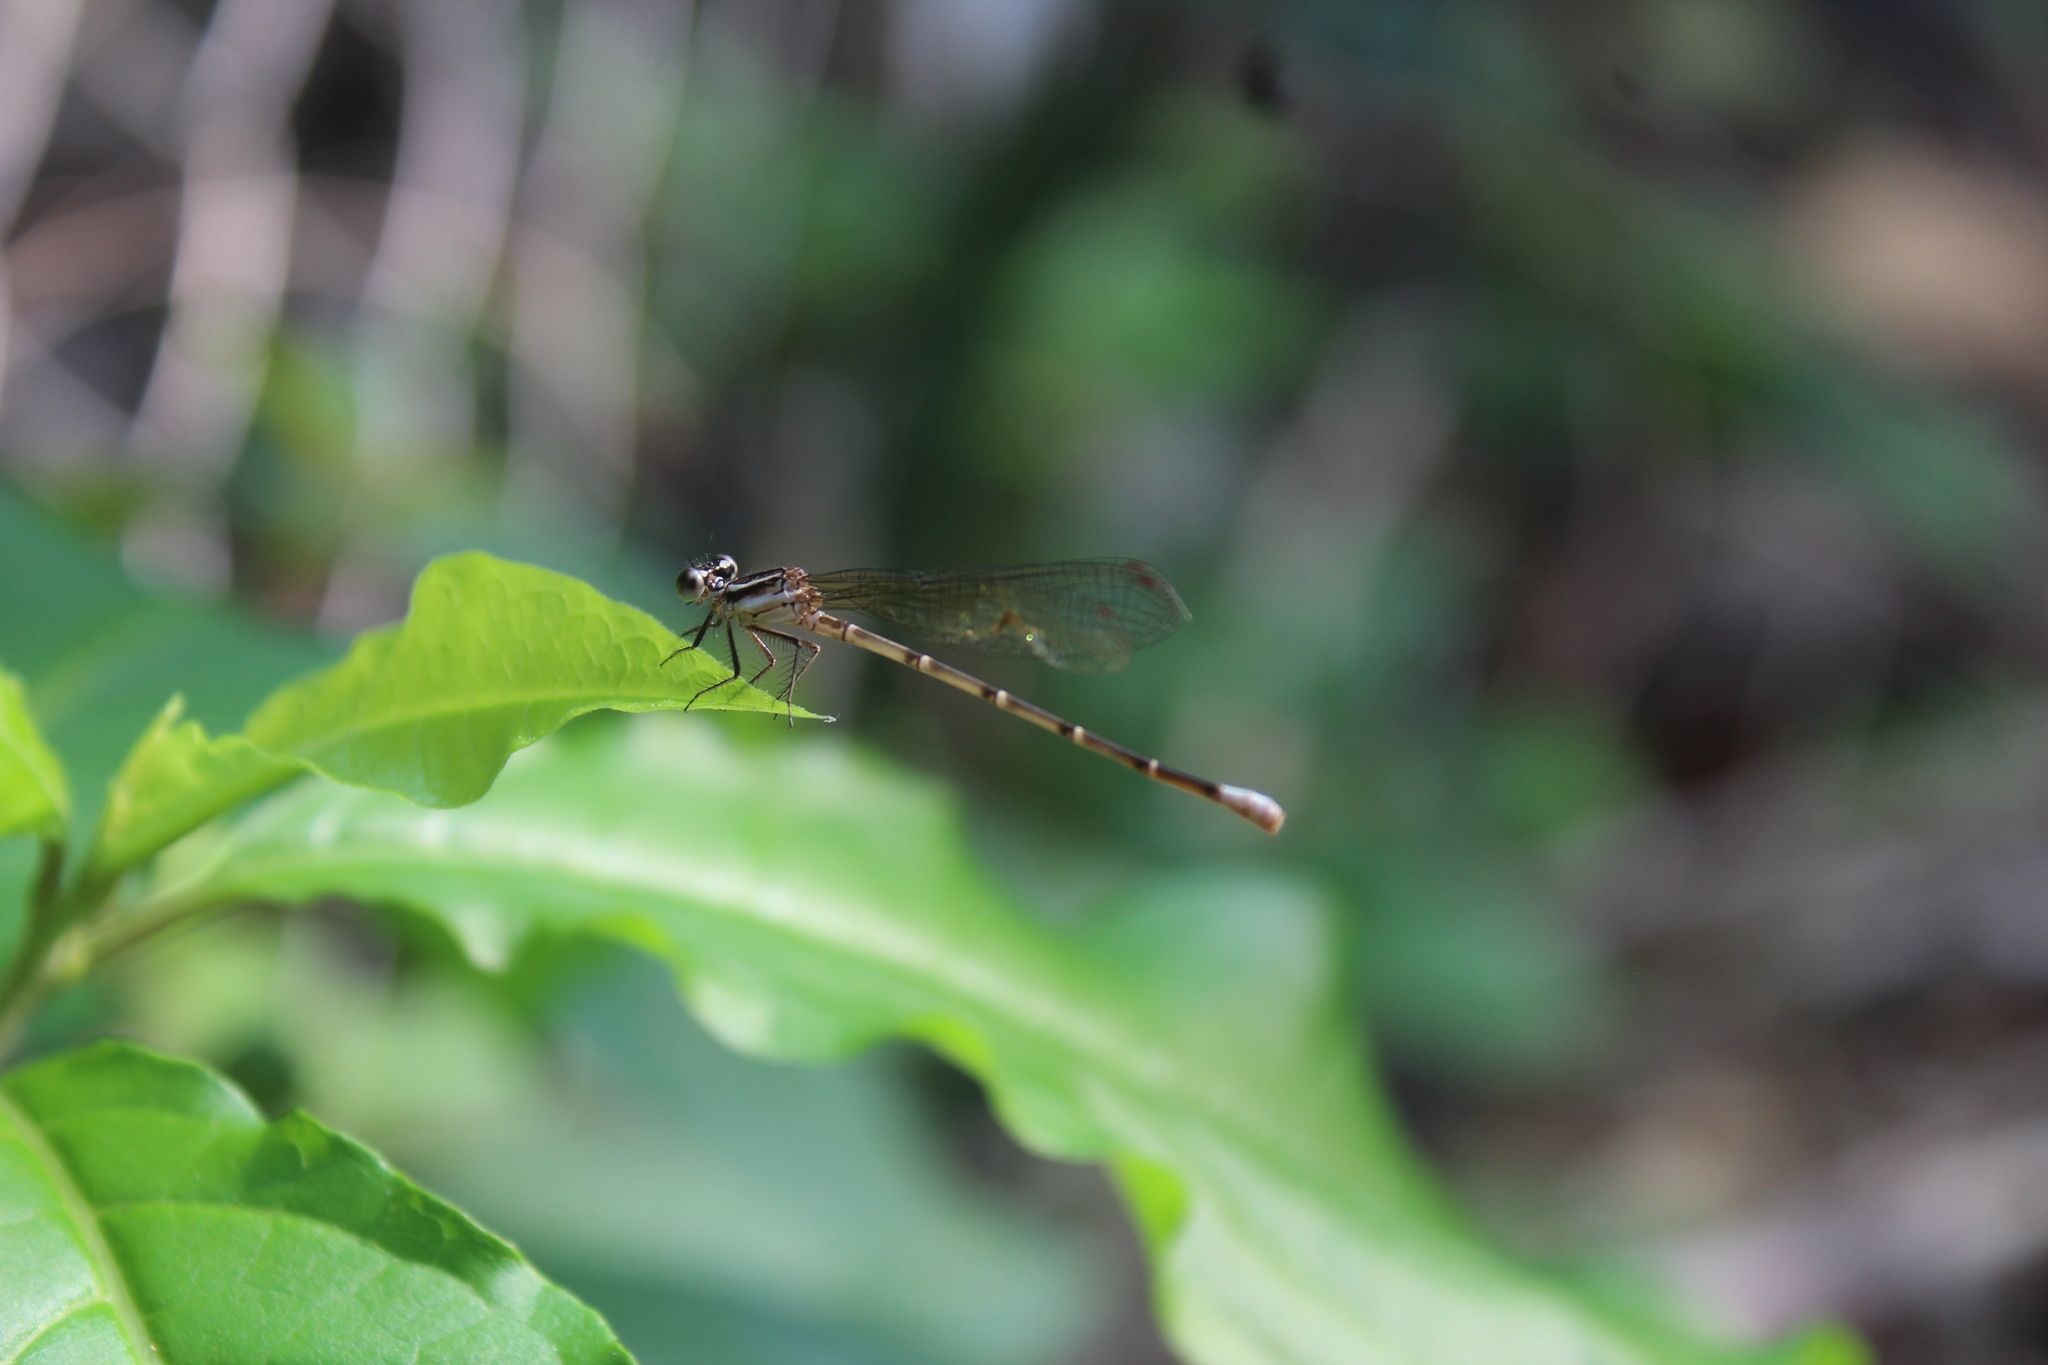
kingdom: Animalia
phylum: Arthropoda
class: Insecta
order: Odonata
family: Coenagrionidae
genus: Argia
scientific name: Argia frequentula
